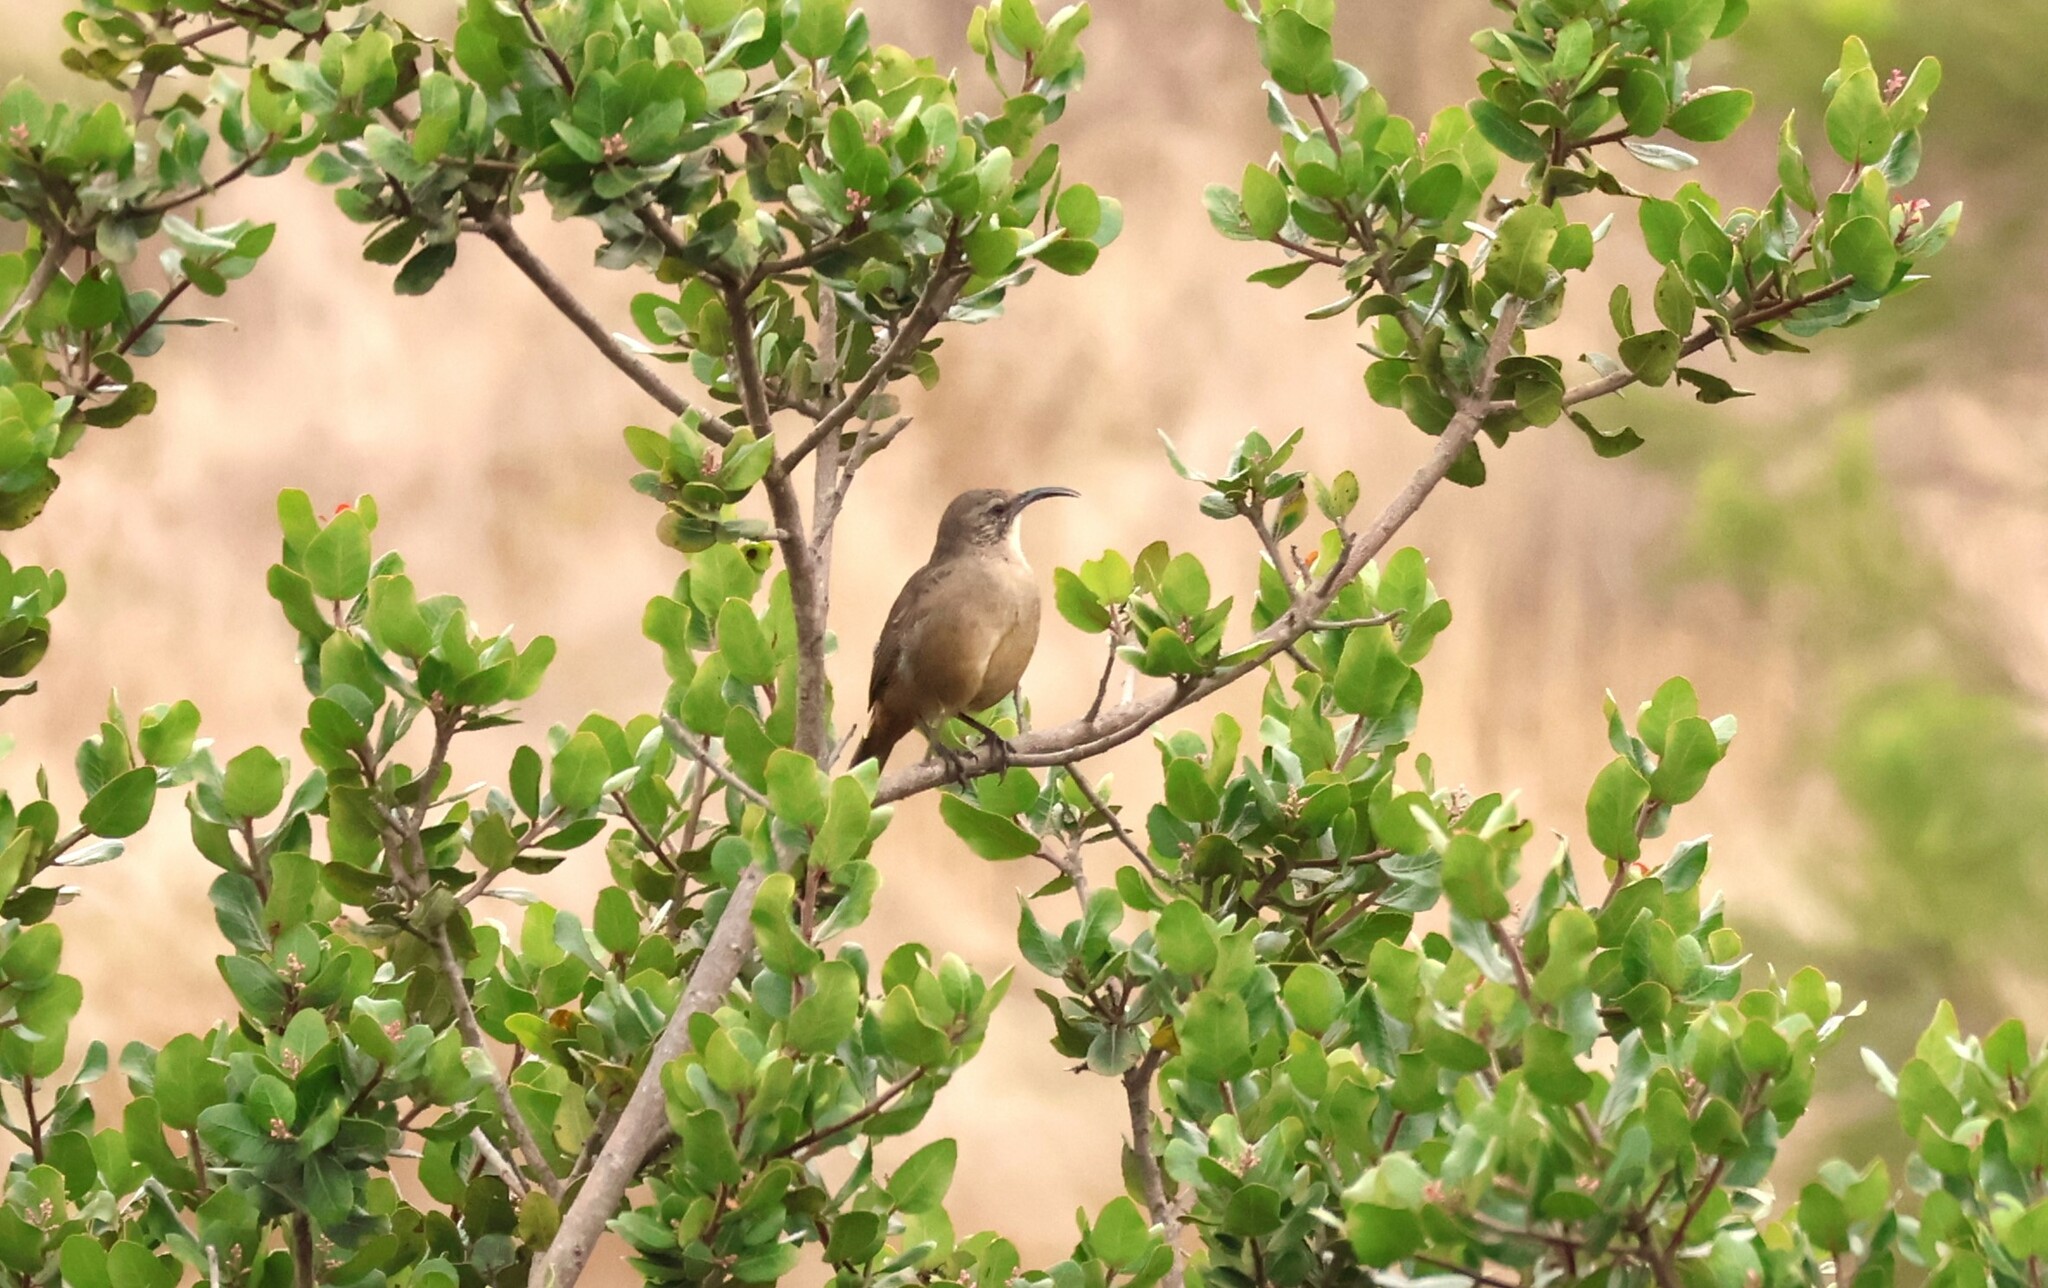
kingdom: Animalia
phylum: Chordata
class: Aves
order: Passeriformes
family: Mimidae
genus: Toxostoma
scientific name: Toxostoma redivivum
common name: California thrasher
